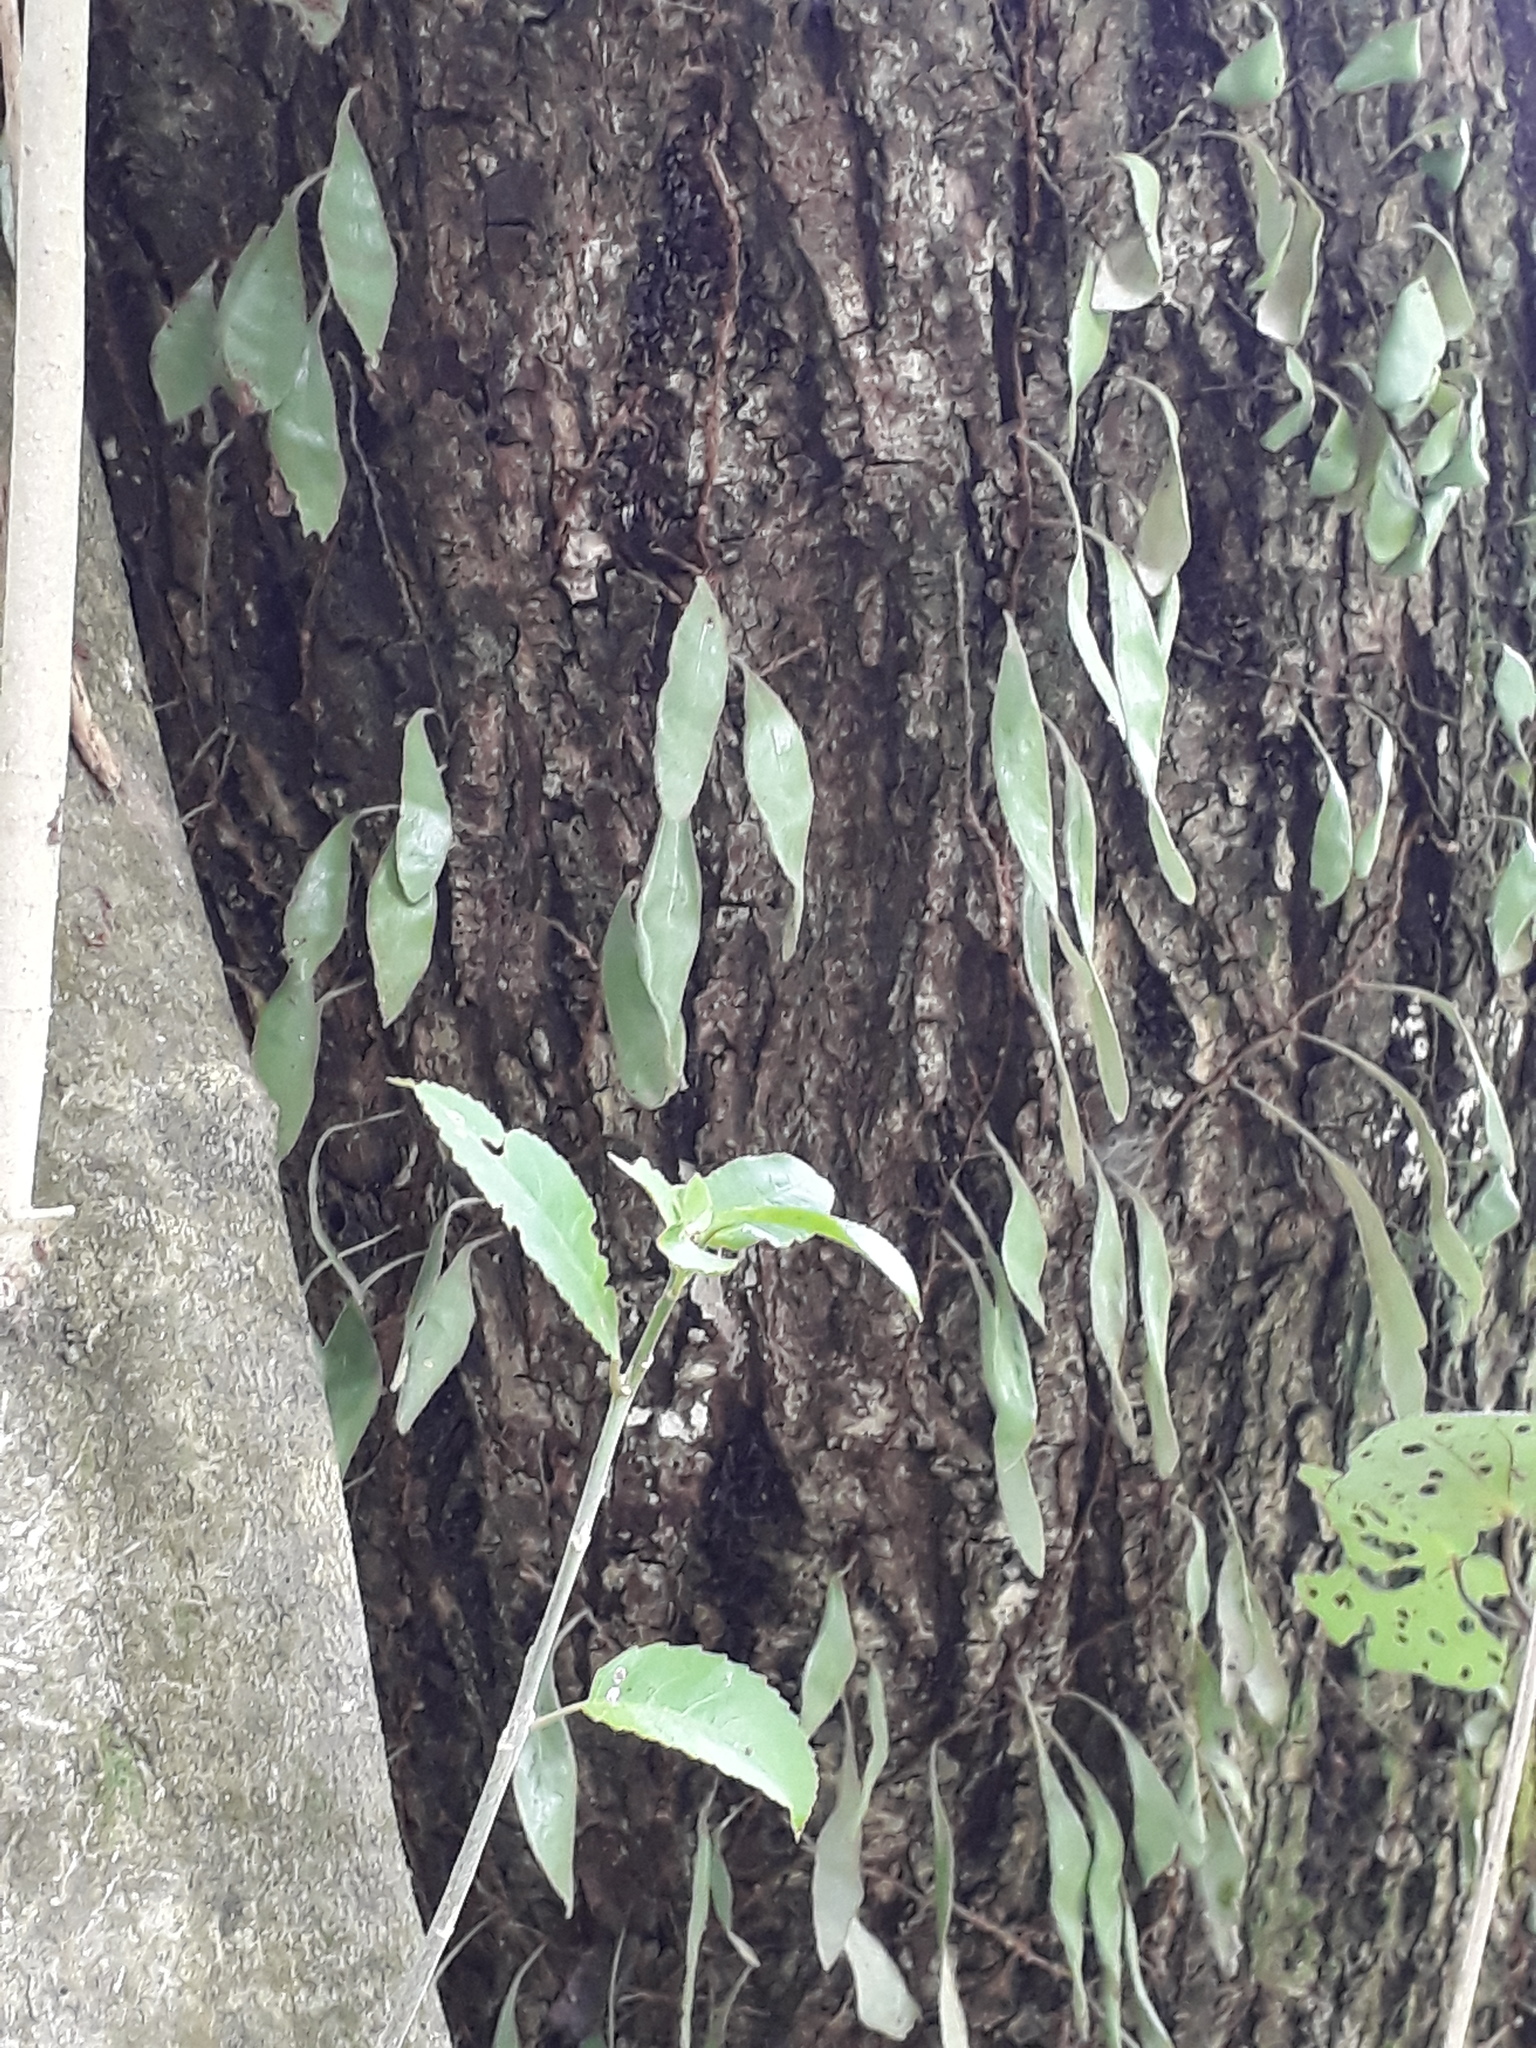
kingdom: Plantae
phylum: Tracheophyta
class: Polypodiopsida
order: Polypodiales
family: Polypodiaceae
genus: Pyrrosia
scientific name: Pyrrosia eleagnifolia
